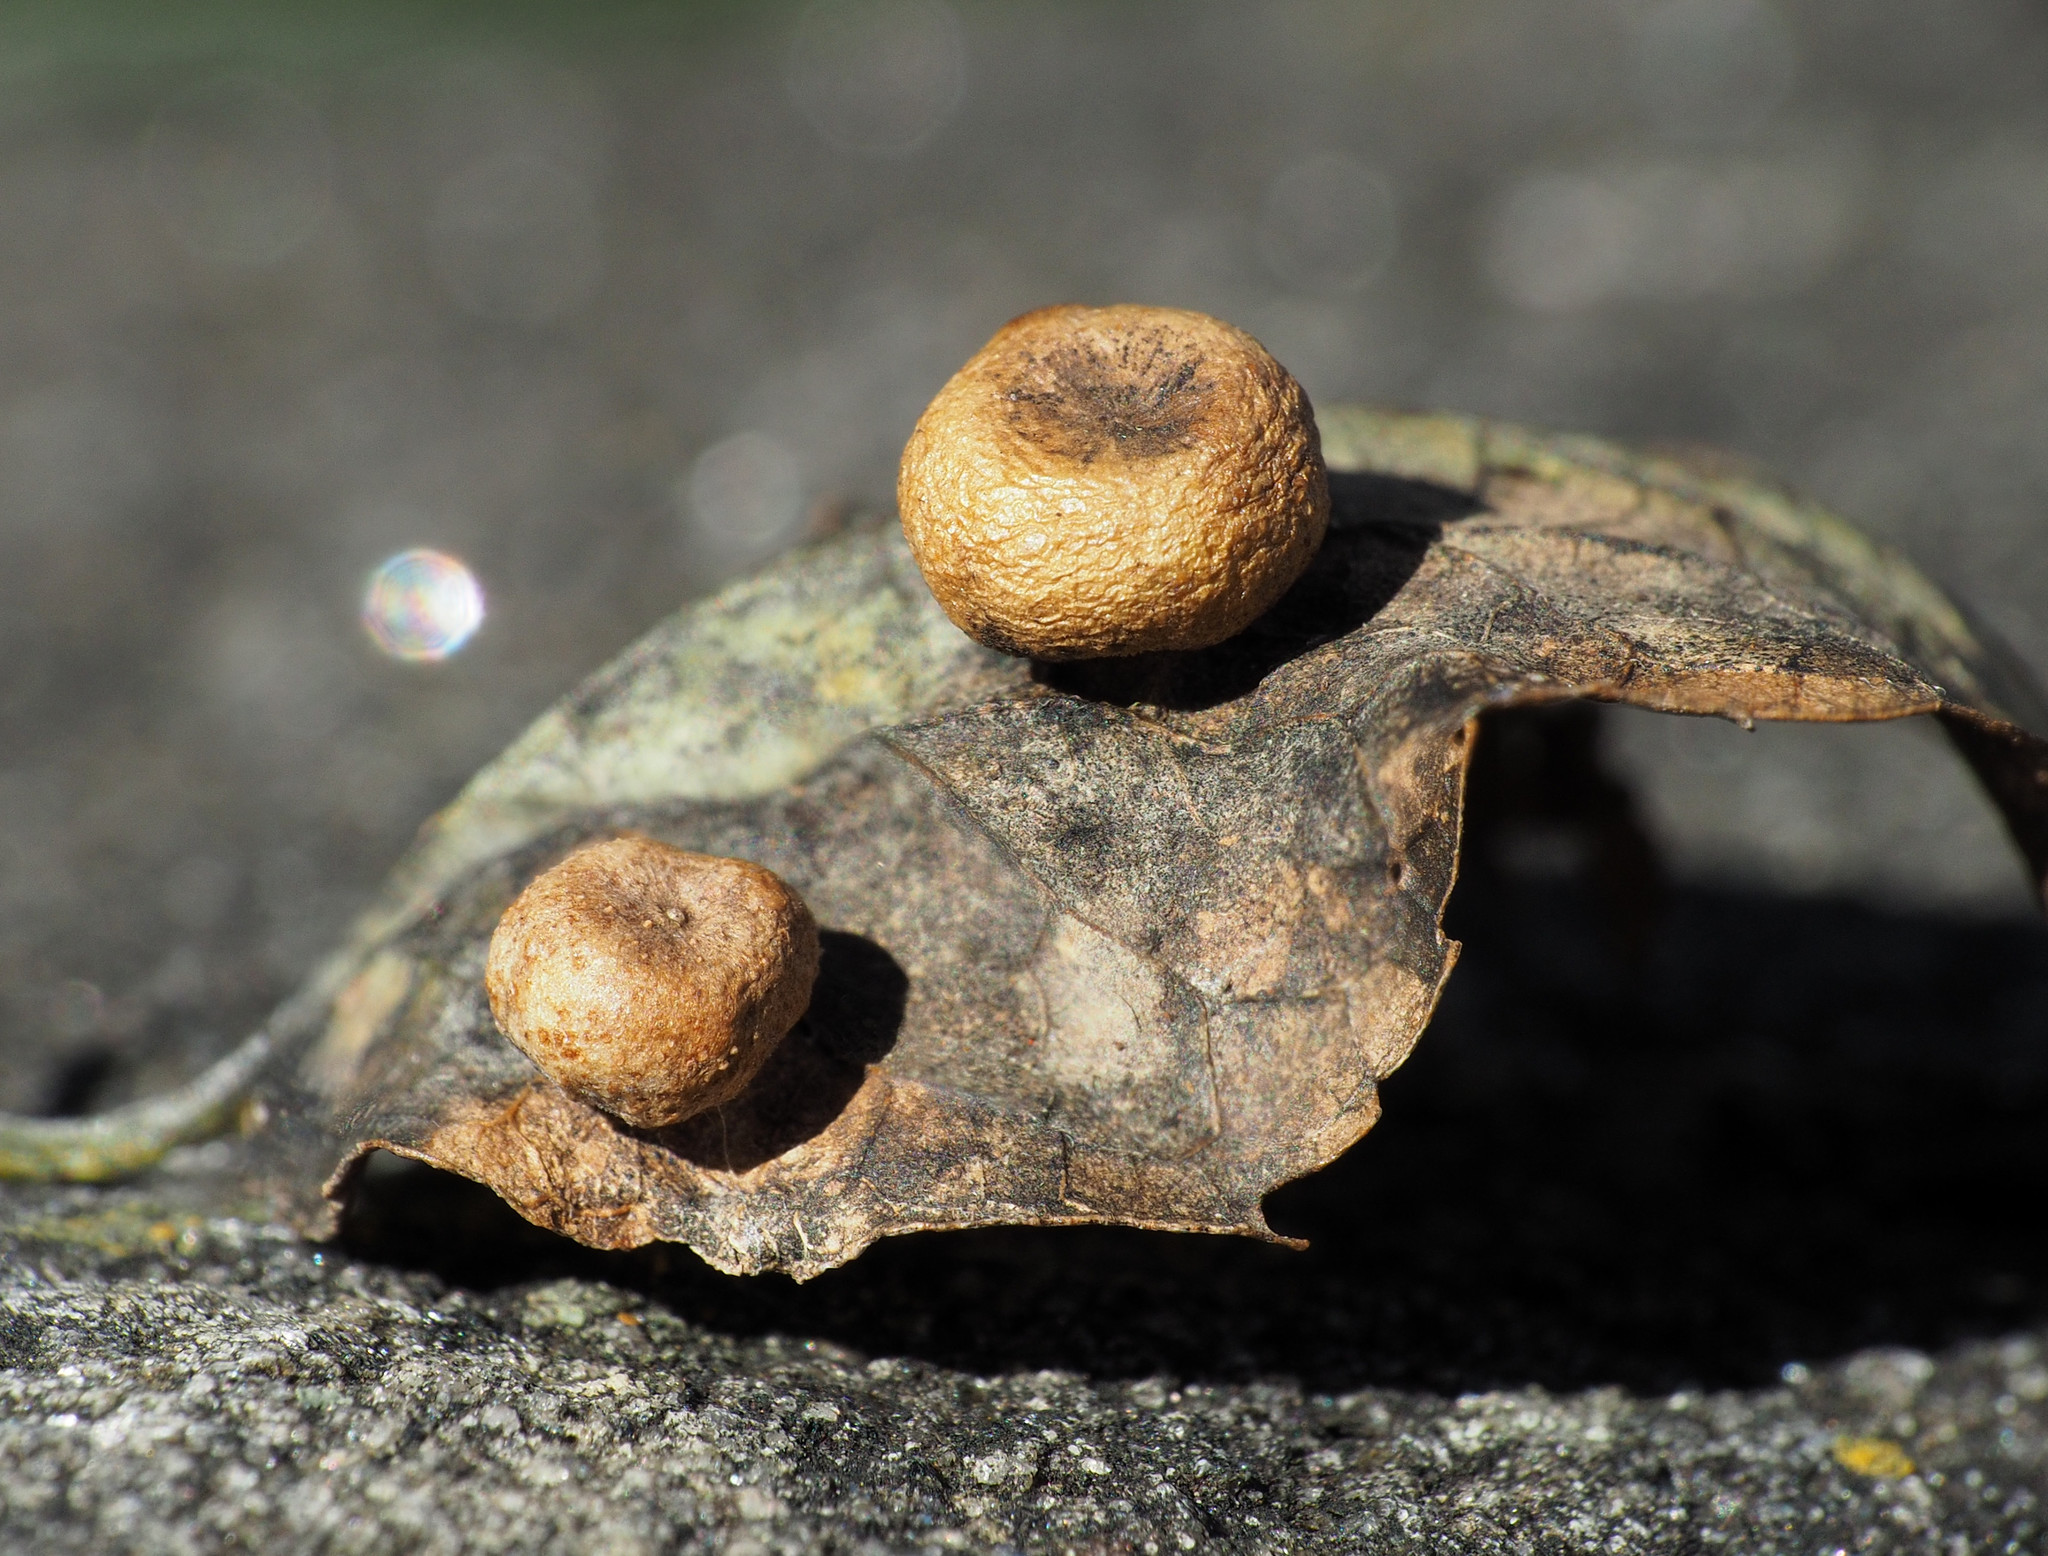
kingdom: Animalia
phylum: Arthropoda
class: Insecta
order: Hemiptera
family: Aphalaridae
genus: Pachypsylla
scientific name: Pachypsylla celtidismamma
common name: Hackberry nipplegall psyllid
